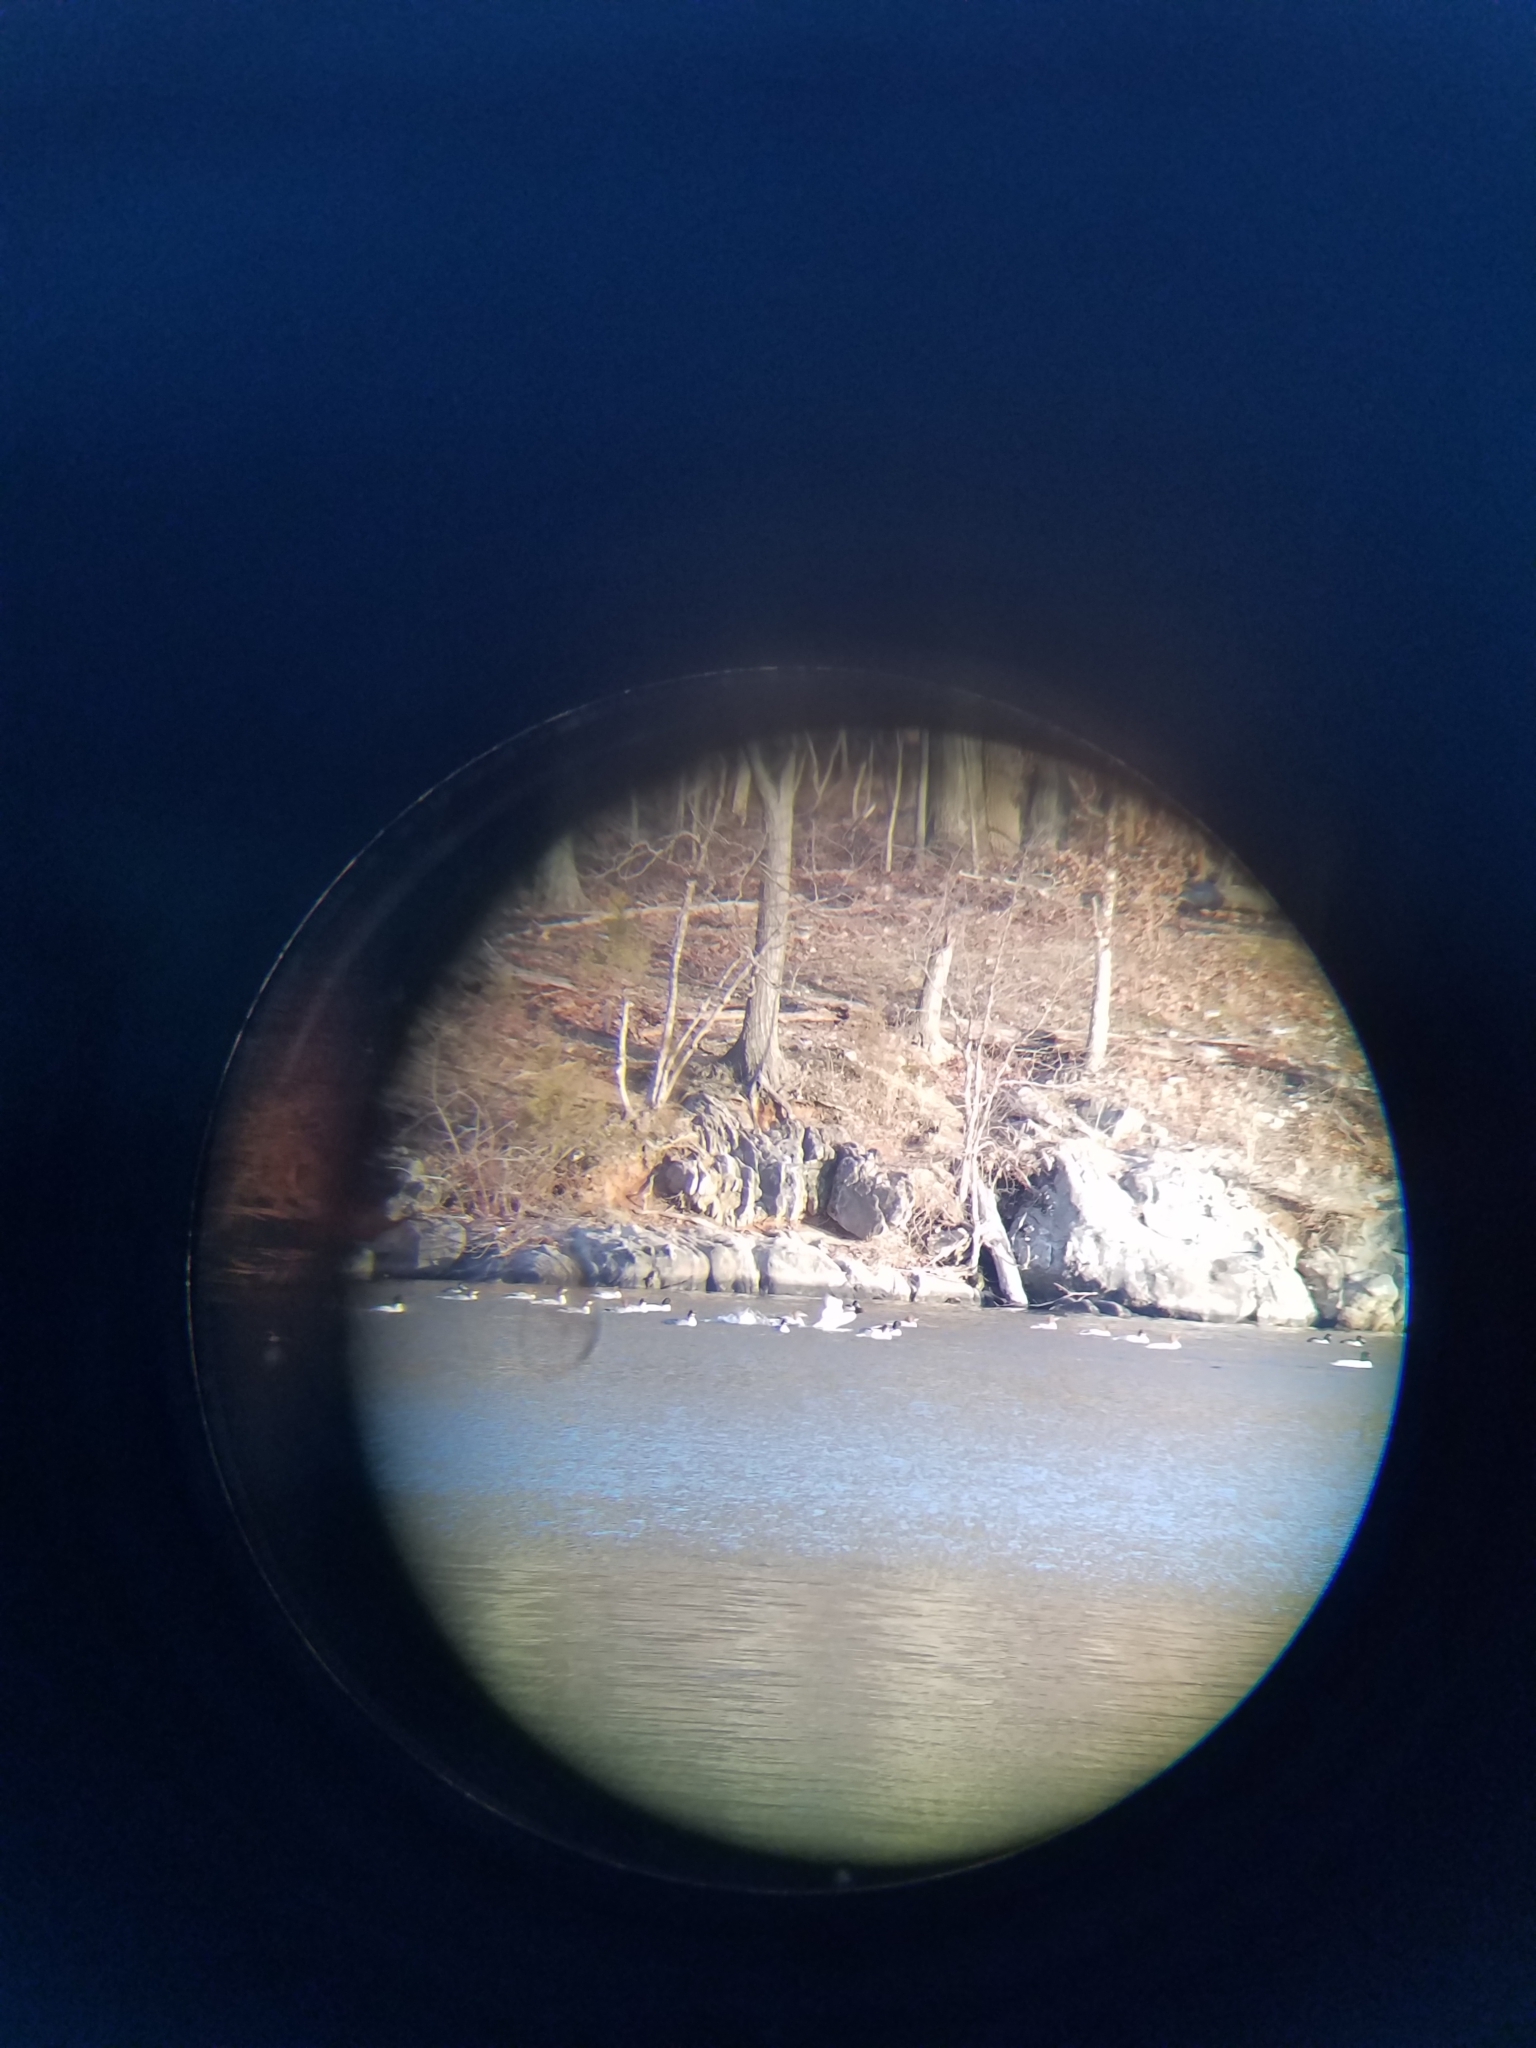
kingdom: Animalia
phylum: Chordata
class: Aves
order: Anseriformes
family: Anatidae
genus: Mergus
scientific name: Mergus merganser
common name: Common merganser
